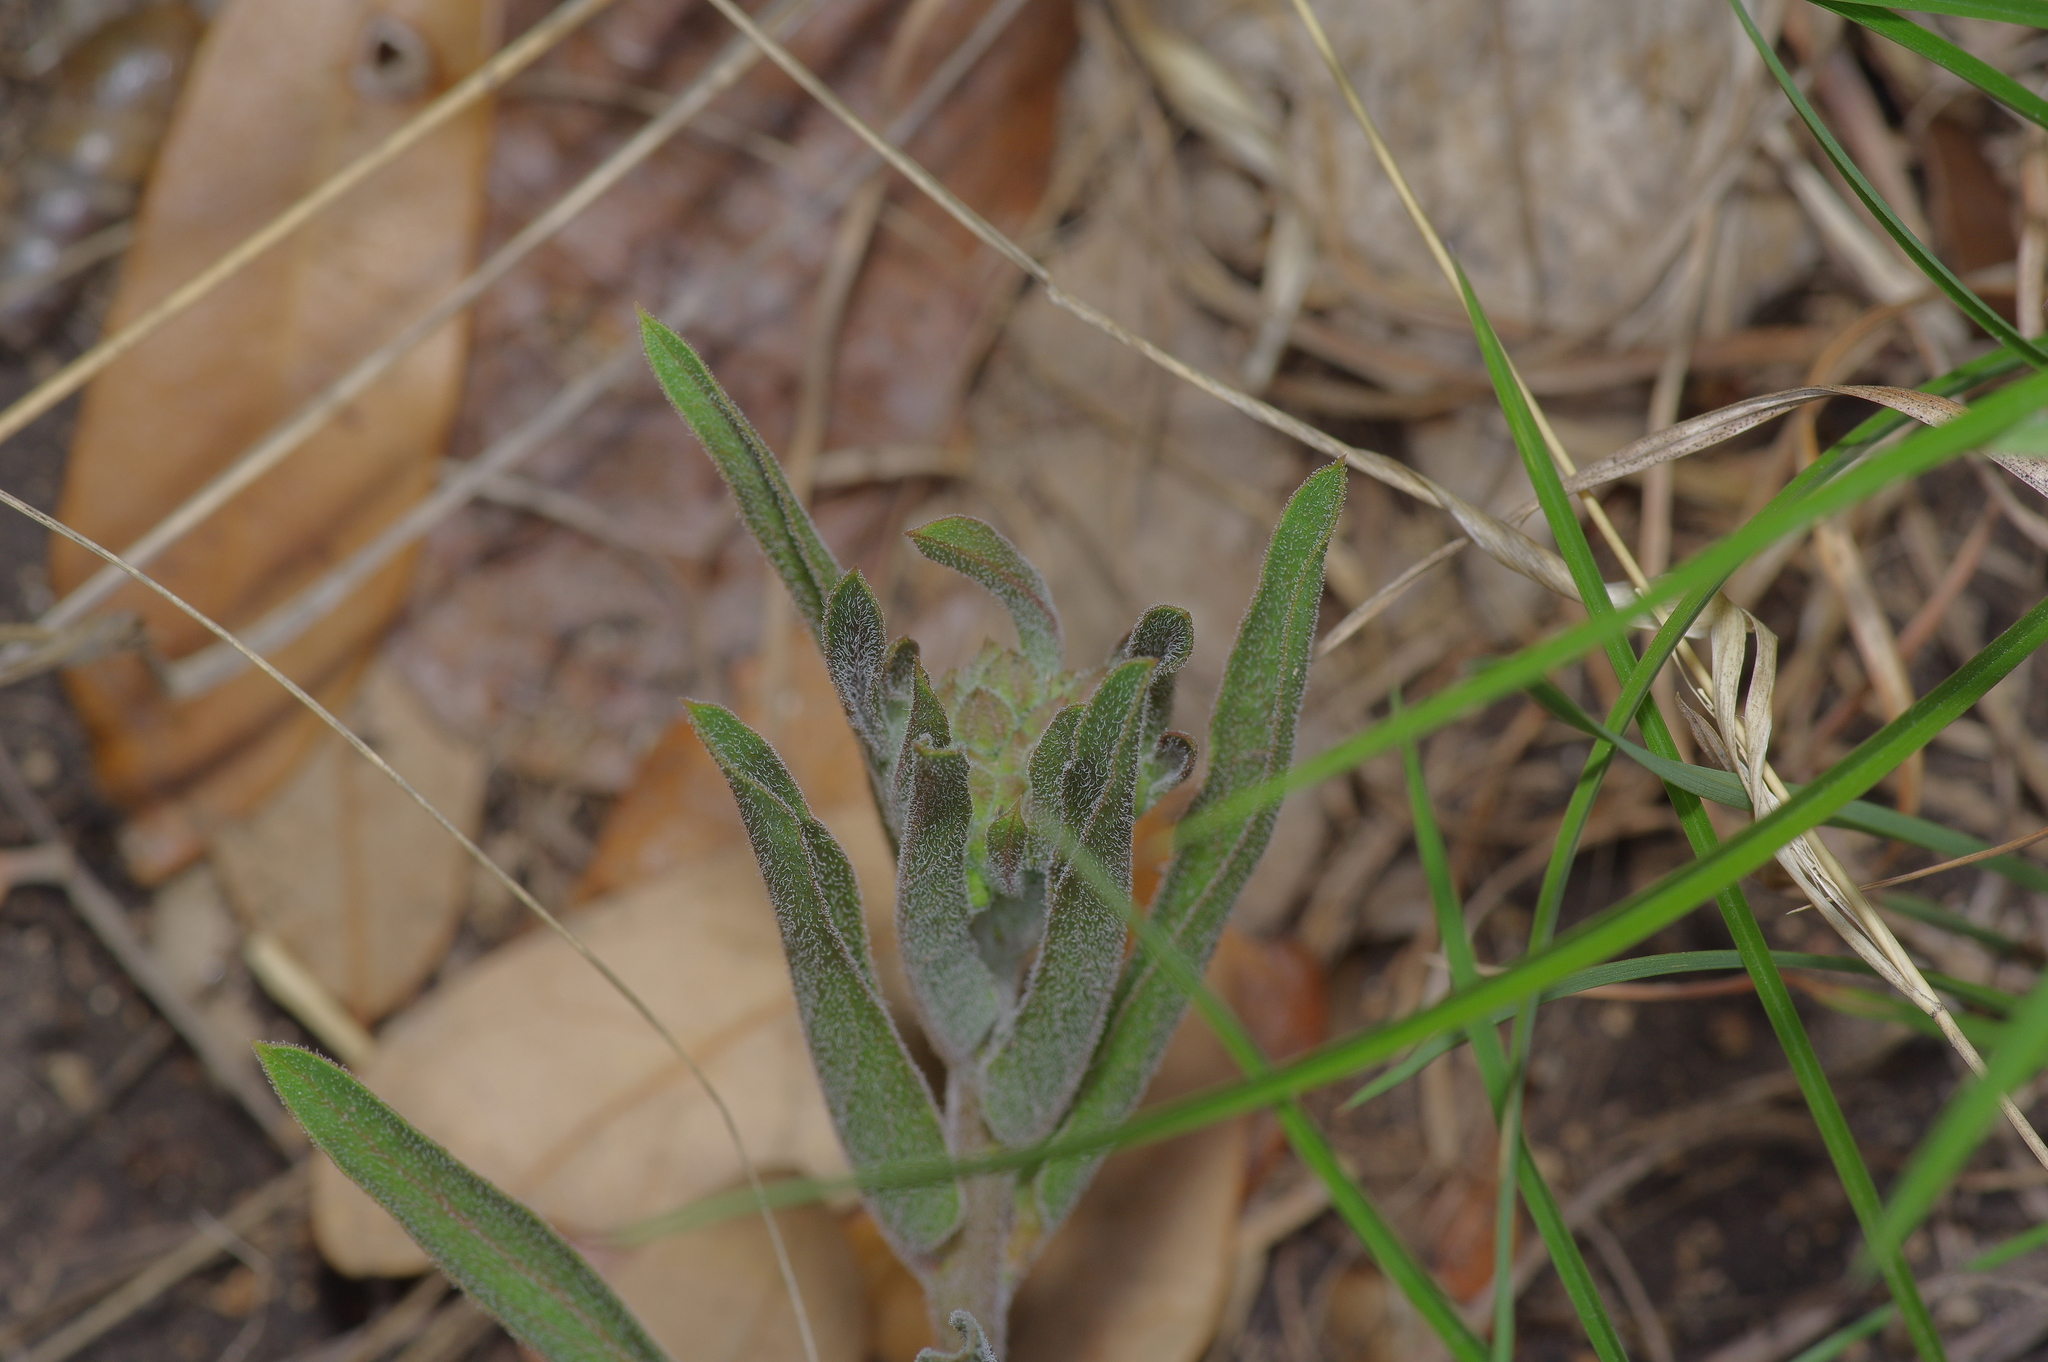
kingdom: Plantae
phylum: Tracheophyta
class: Magnoliopsida
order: Gentianales
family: Apocynaceae
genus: Asclepias
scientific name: Asclepias asperula
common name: Antelope horns
